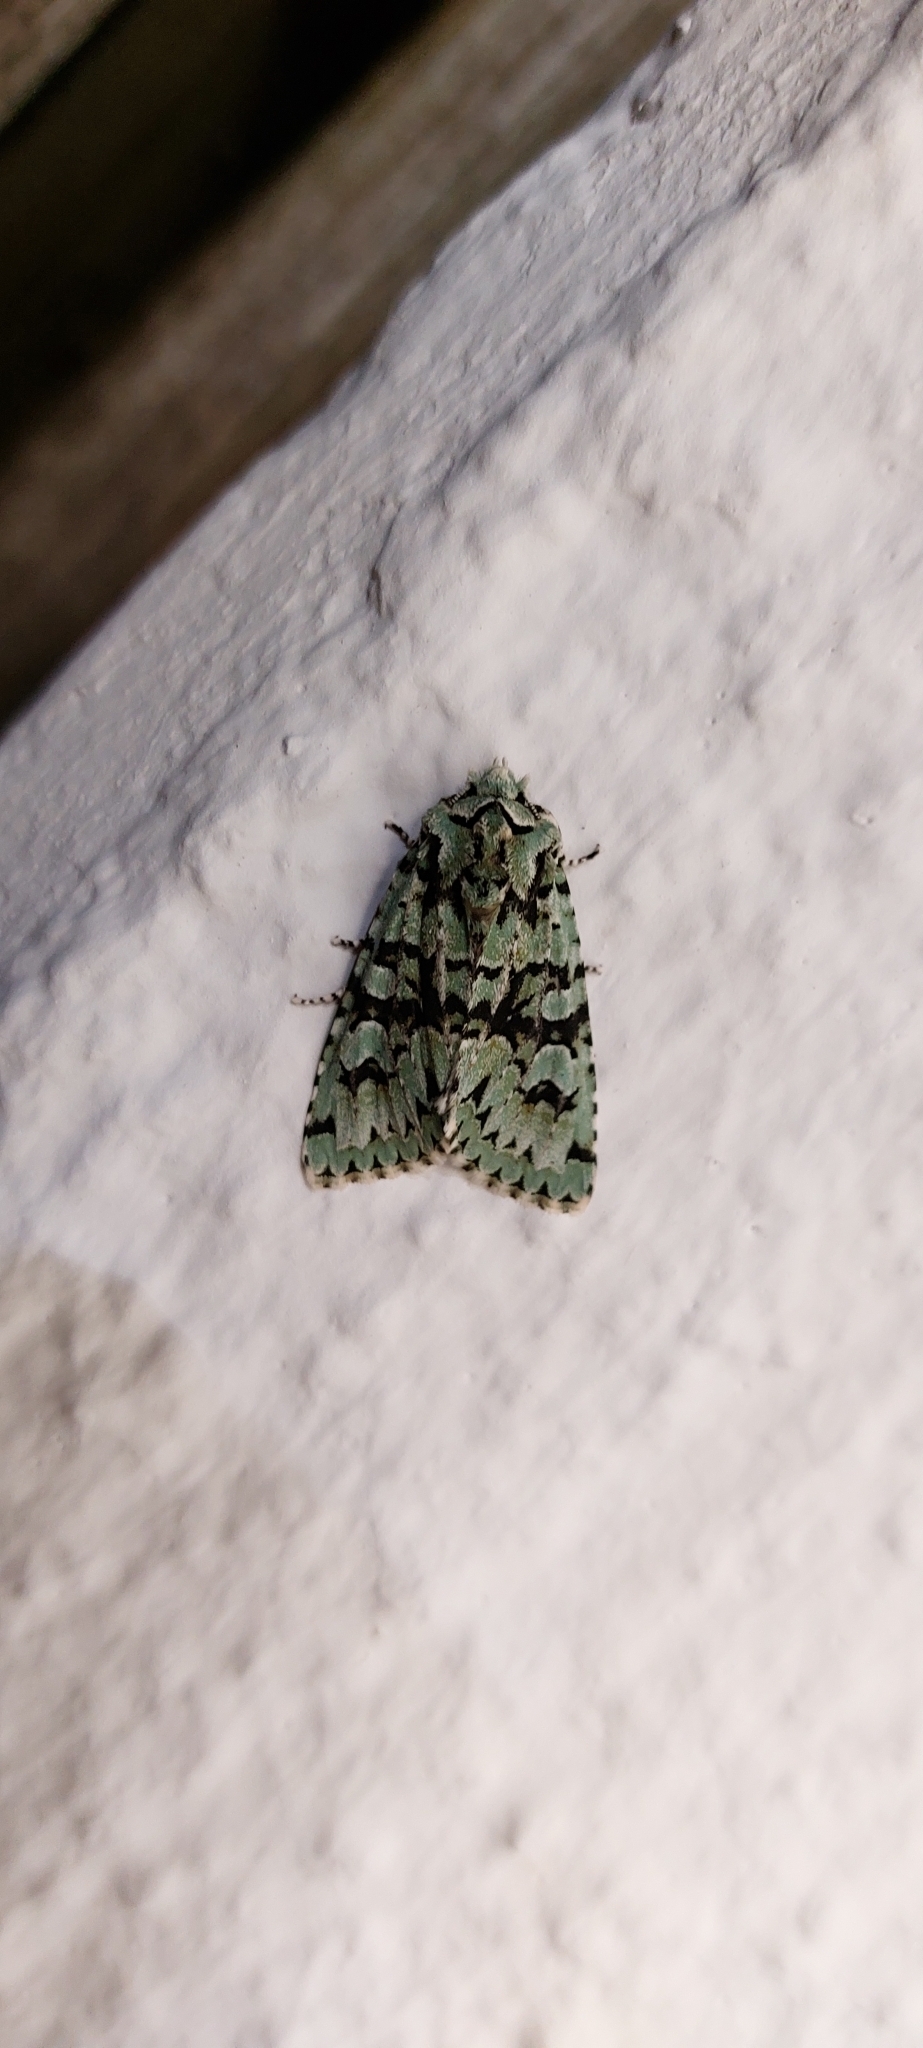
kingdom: Animalia
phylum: Arthropoda
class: Insecta
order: Lepidoptera
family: Noctuidae
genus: Griposia
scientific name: Griposia aprilina
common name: Merveille du jour
